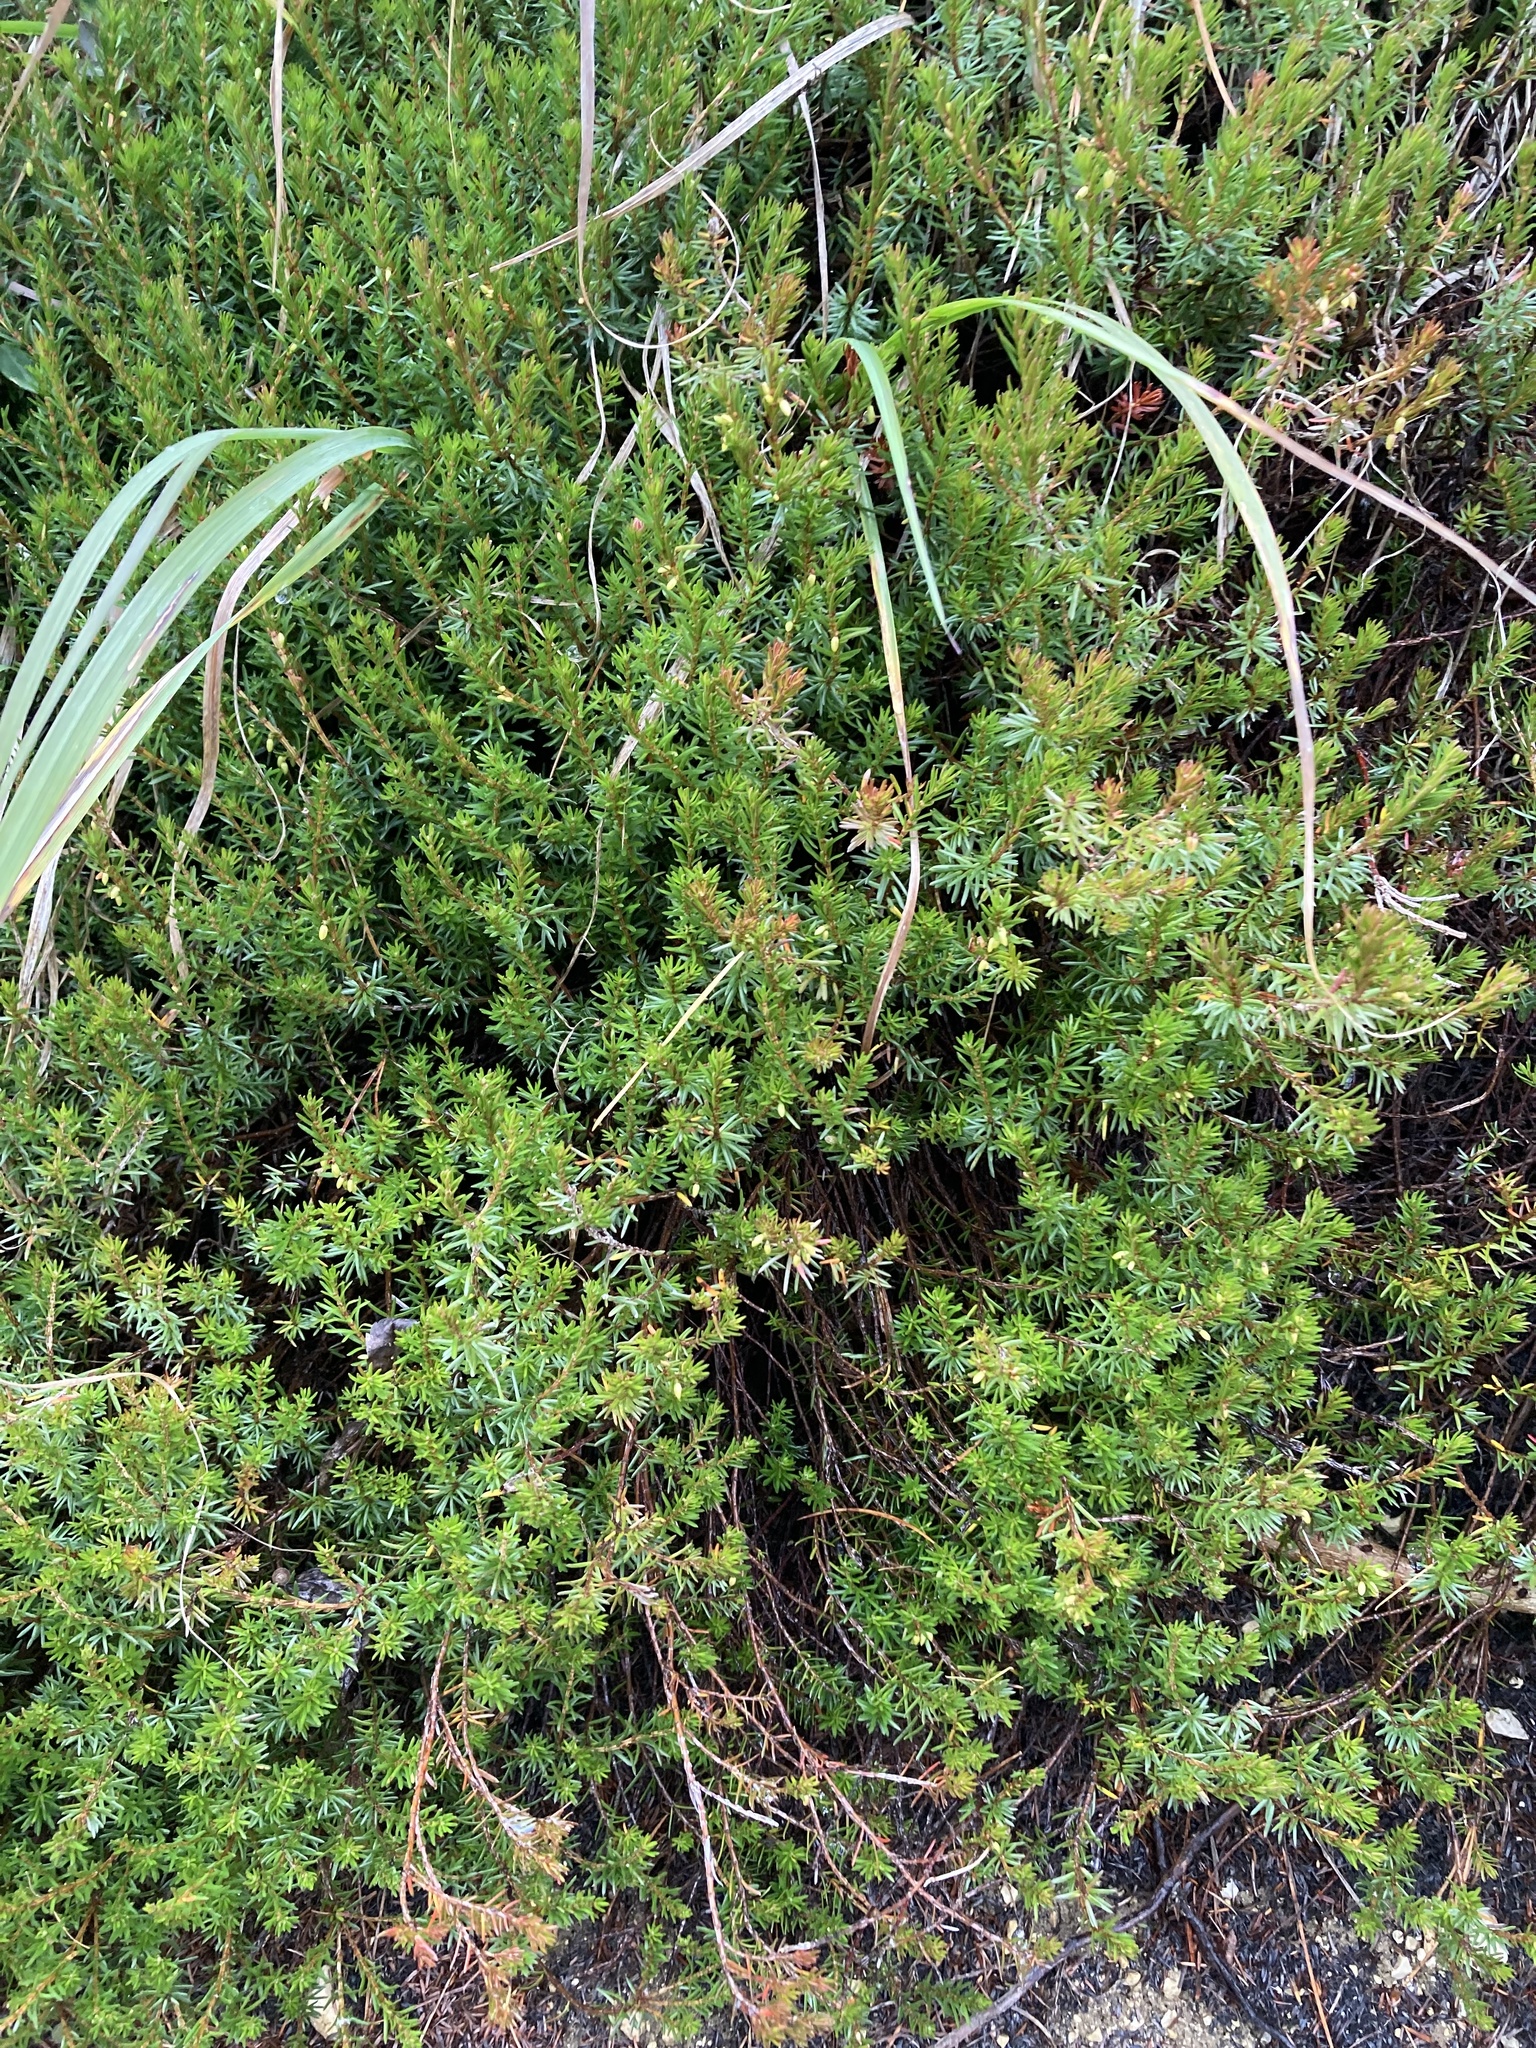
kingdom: Plantae
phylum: Tracheophyta
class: Magnoliopsida
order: Ericales
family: Ericaceae
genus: Erica
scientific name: Erica carnea
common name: Winter heath
